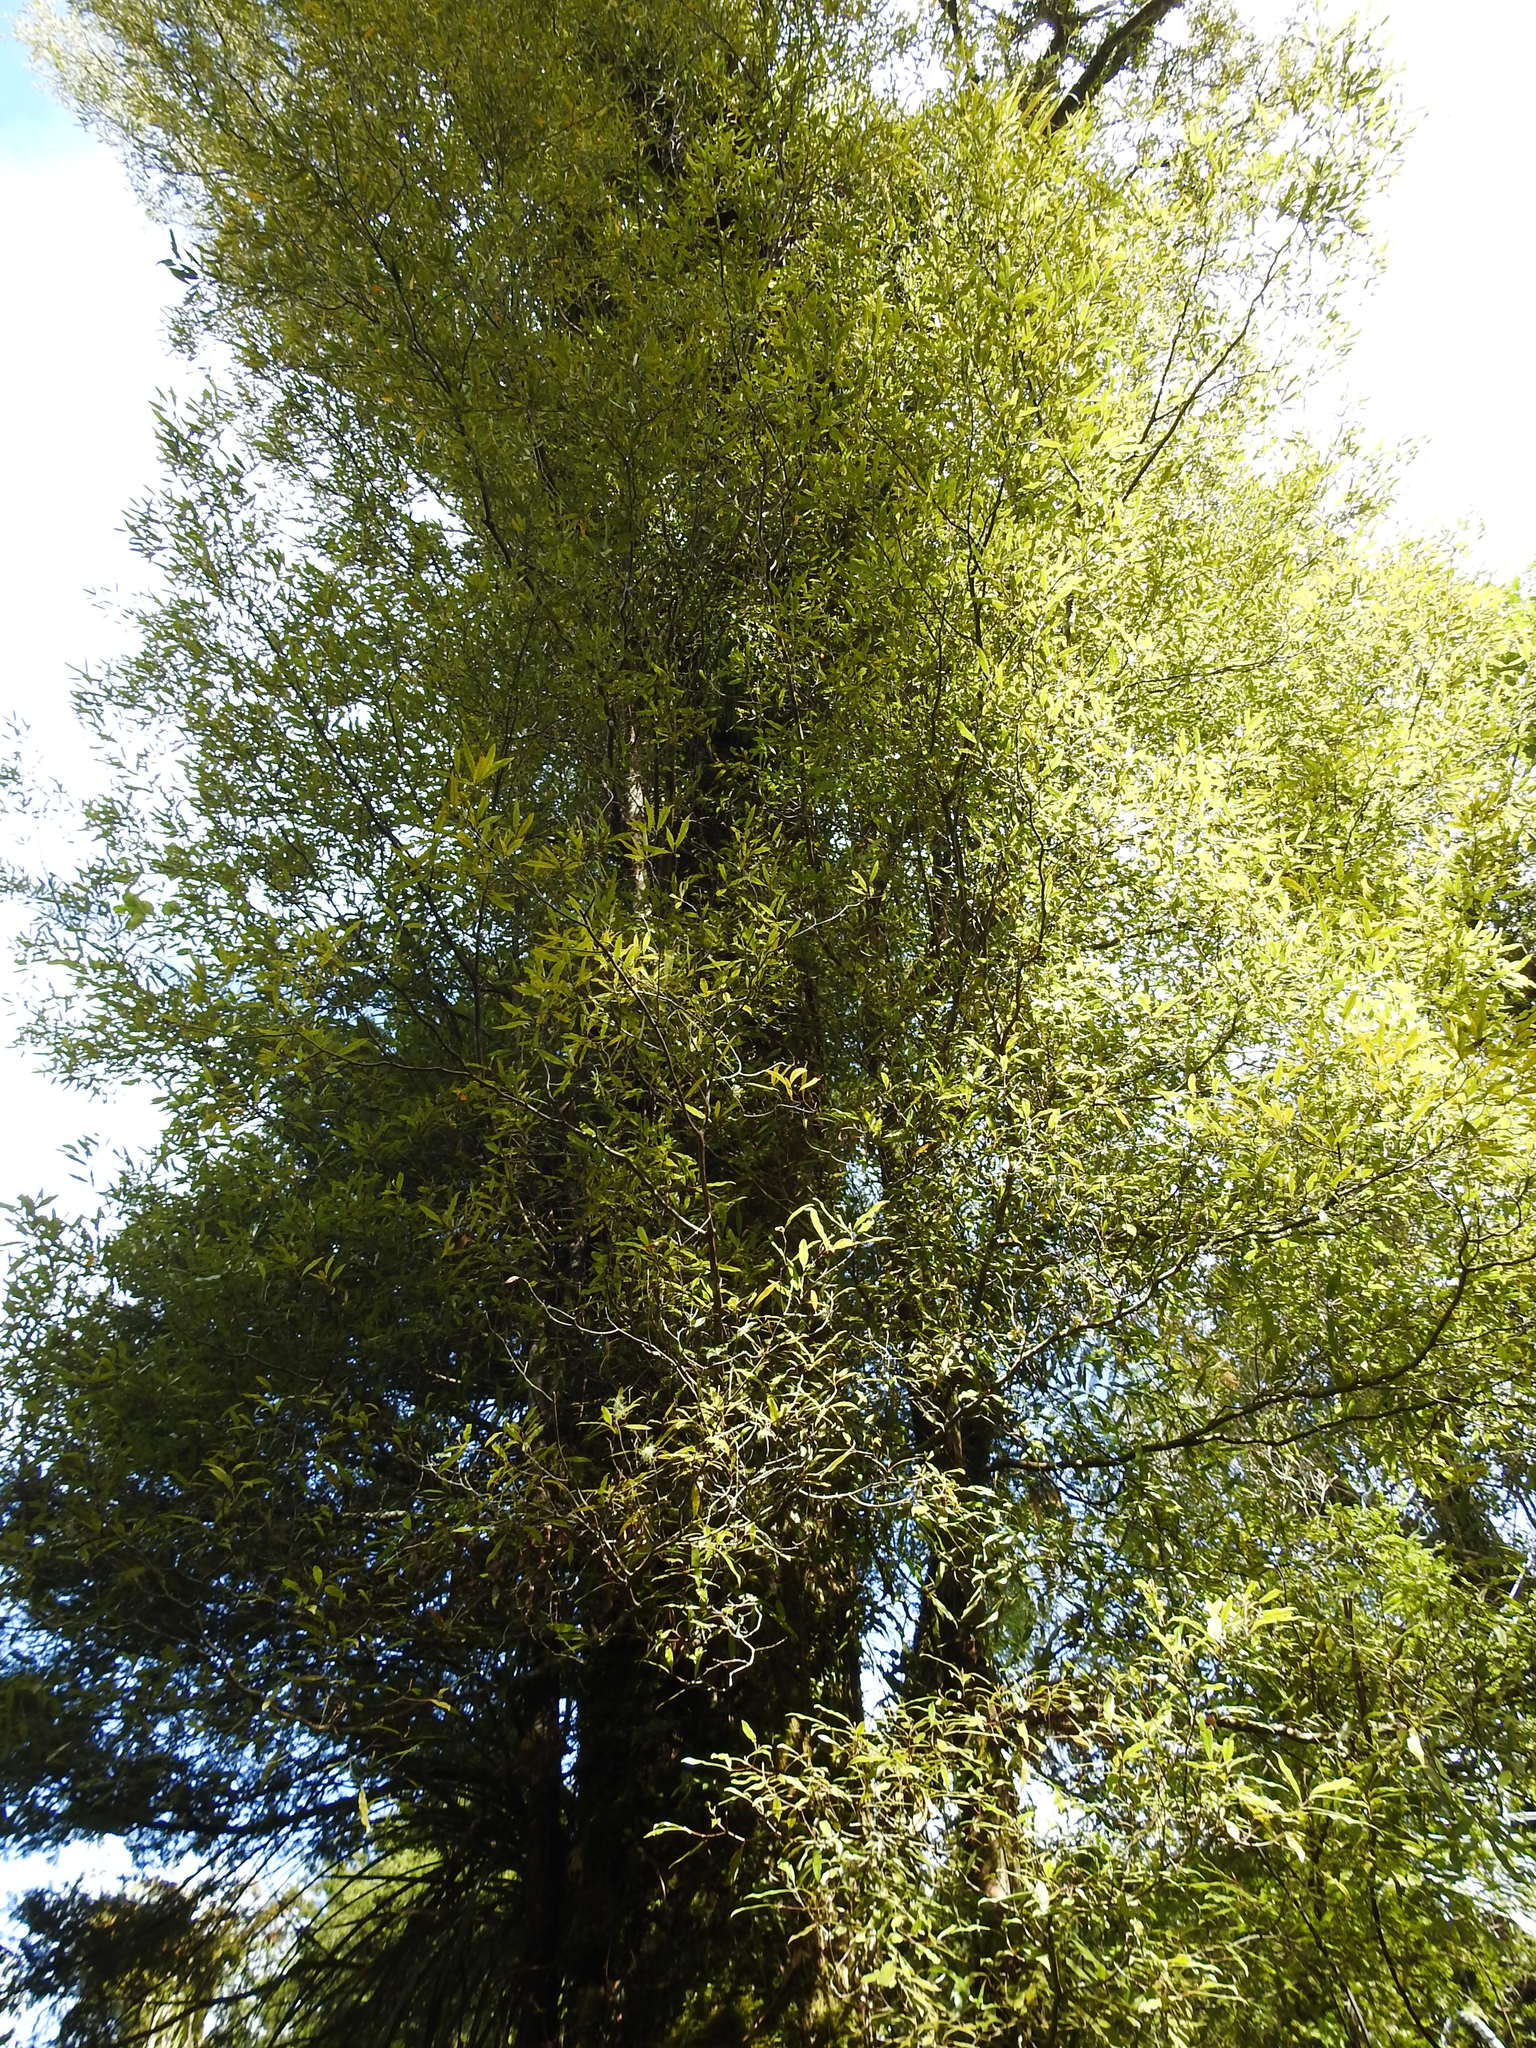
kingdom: Plantae
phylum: Tracheophyta
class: Magnoliopsida
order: Laurales
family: Lauraceae
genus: Beilschmiedia
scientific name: Beilschmiedia tawa
